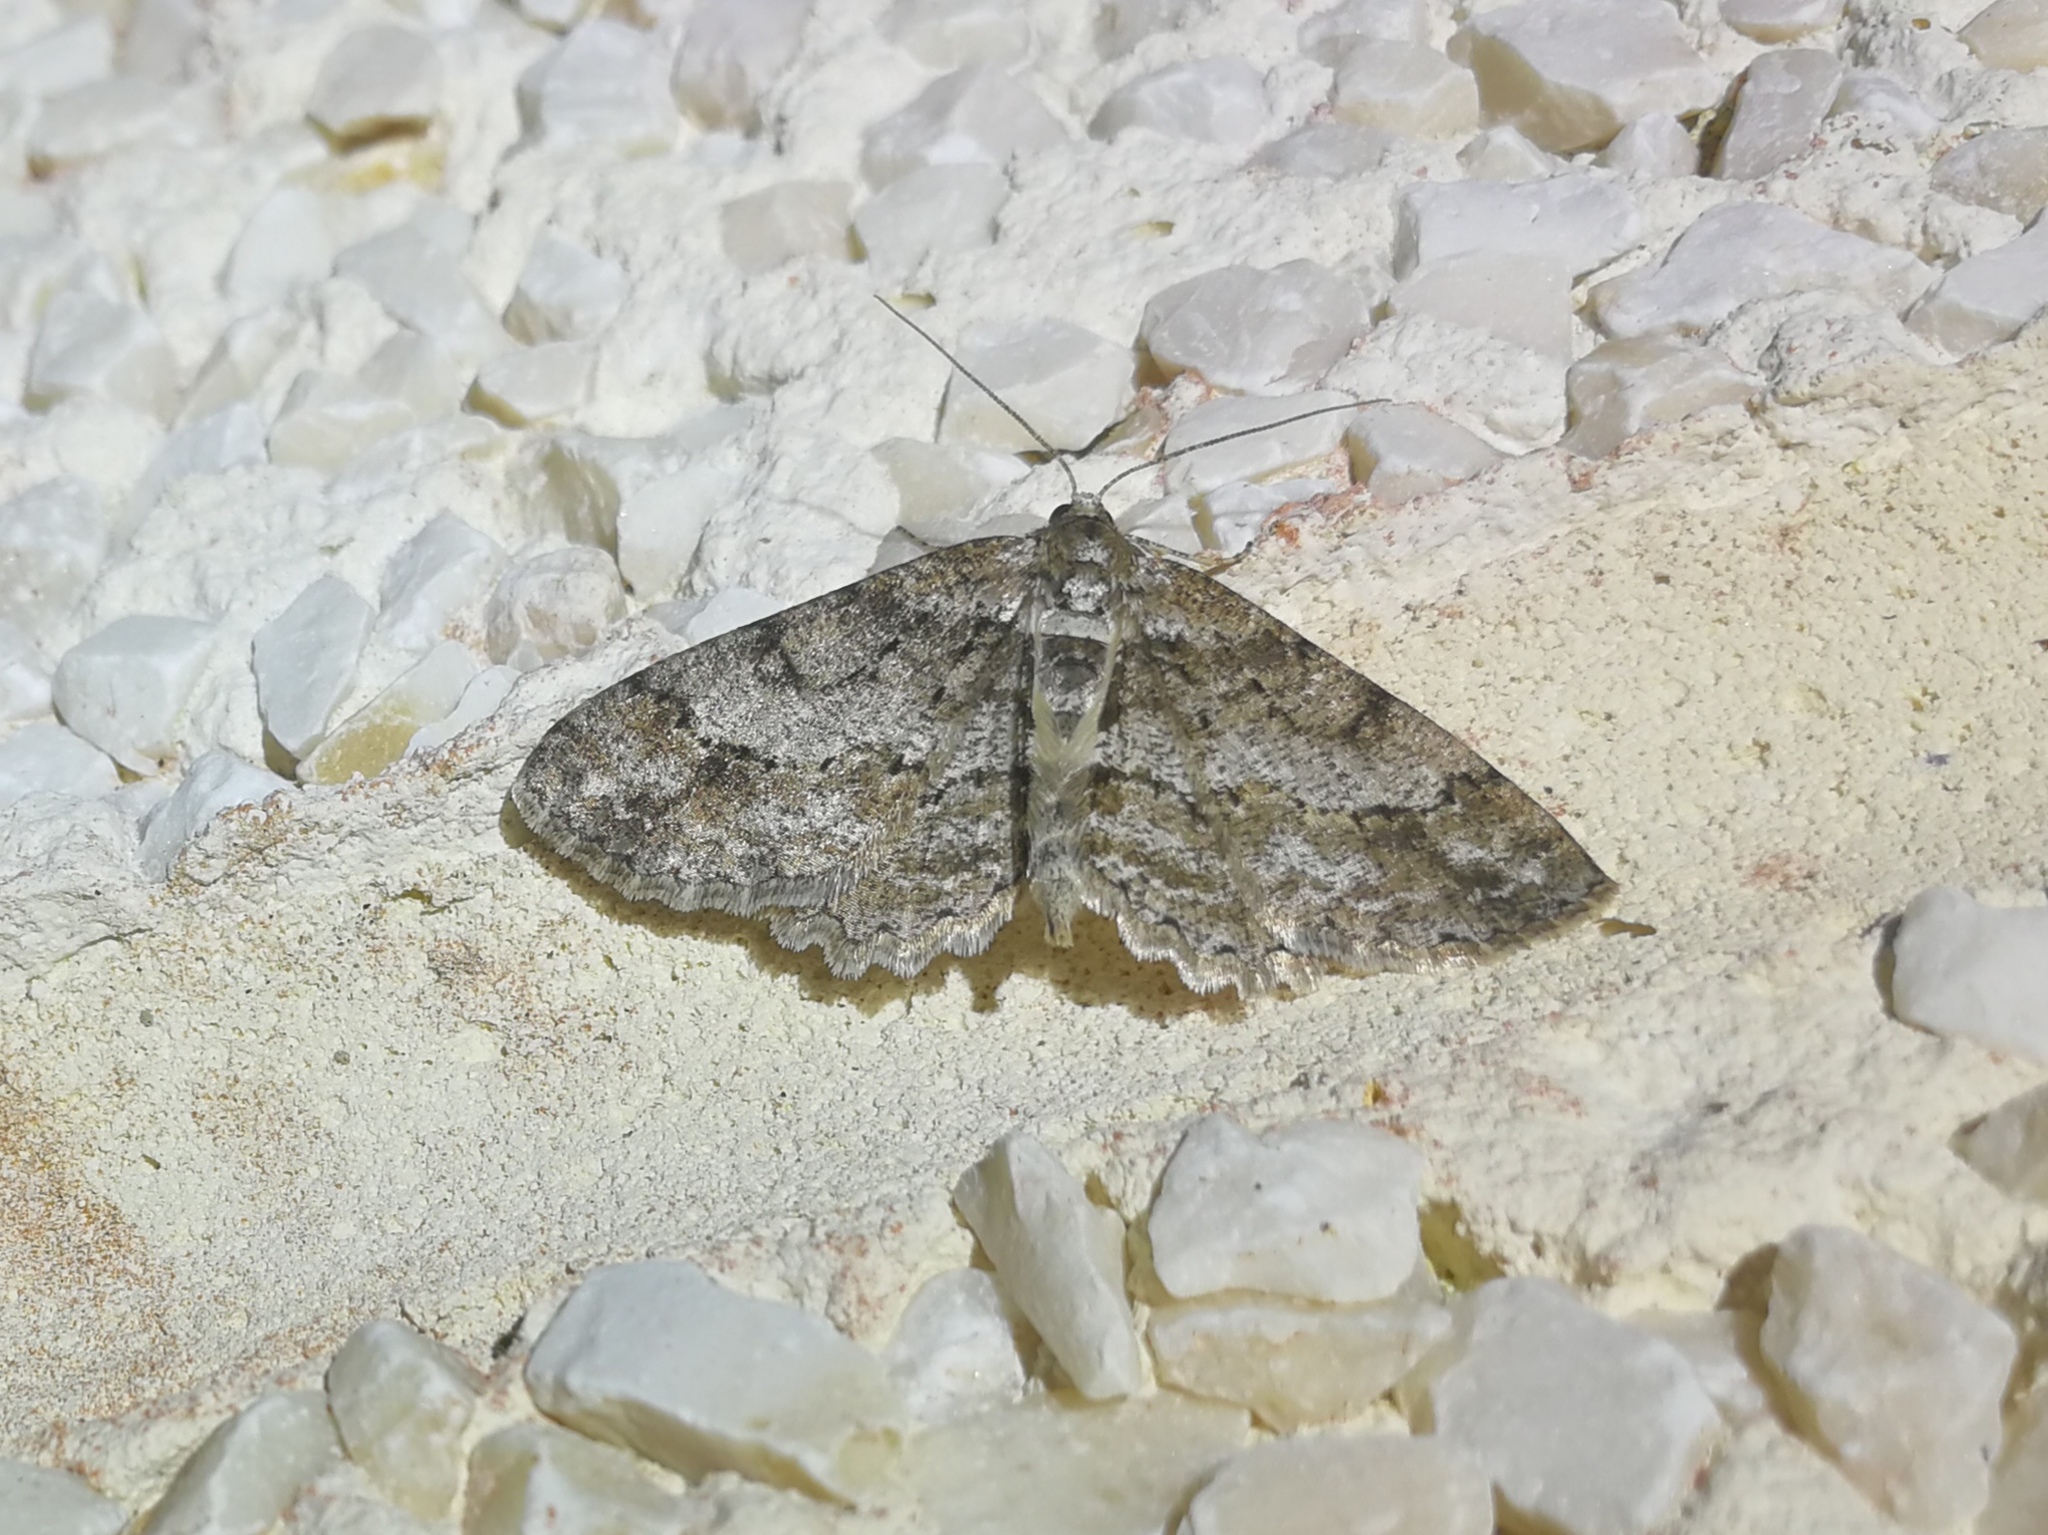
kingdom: Animalia
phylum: Arthropoda
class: Insecta
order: Lepidoptera
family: Geometridae
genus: Paradarisa
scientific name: Paradarisa consonaria
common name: Square spot
